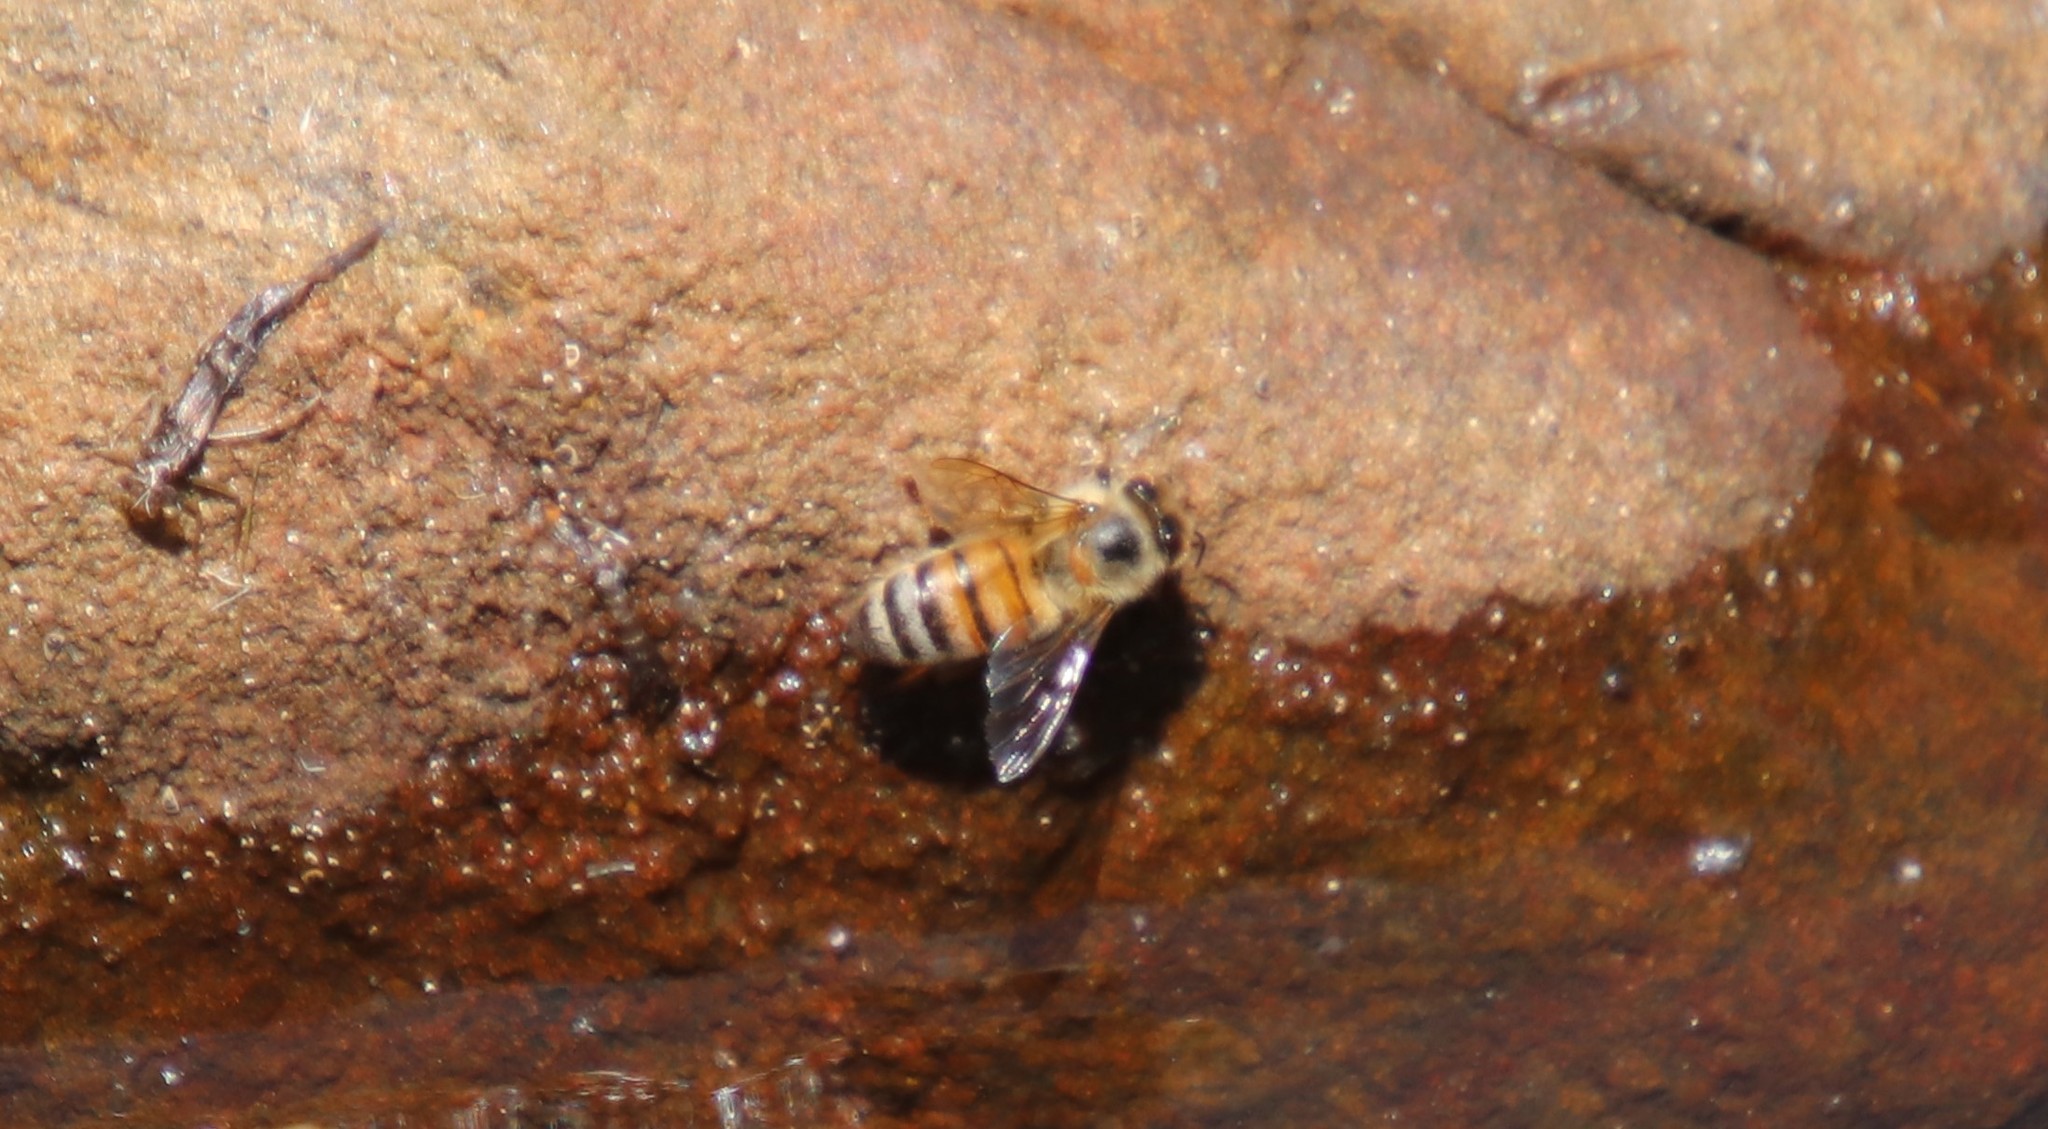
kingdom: Animalia
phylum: Arthropoda
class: Insecta
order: Hymenoptera
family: Apidae
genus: Apis
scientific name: Apis mellifera
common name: Honey bee
